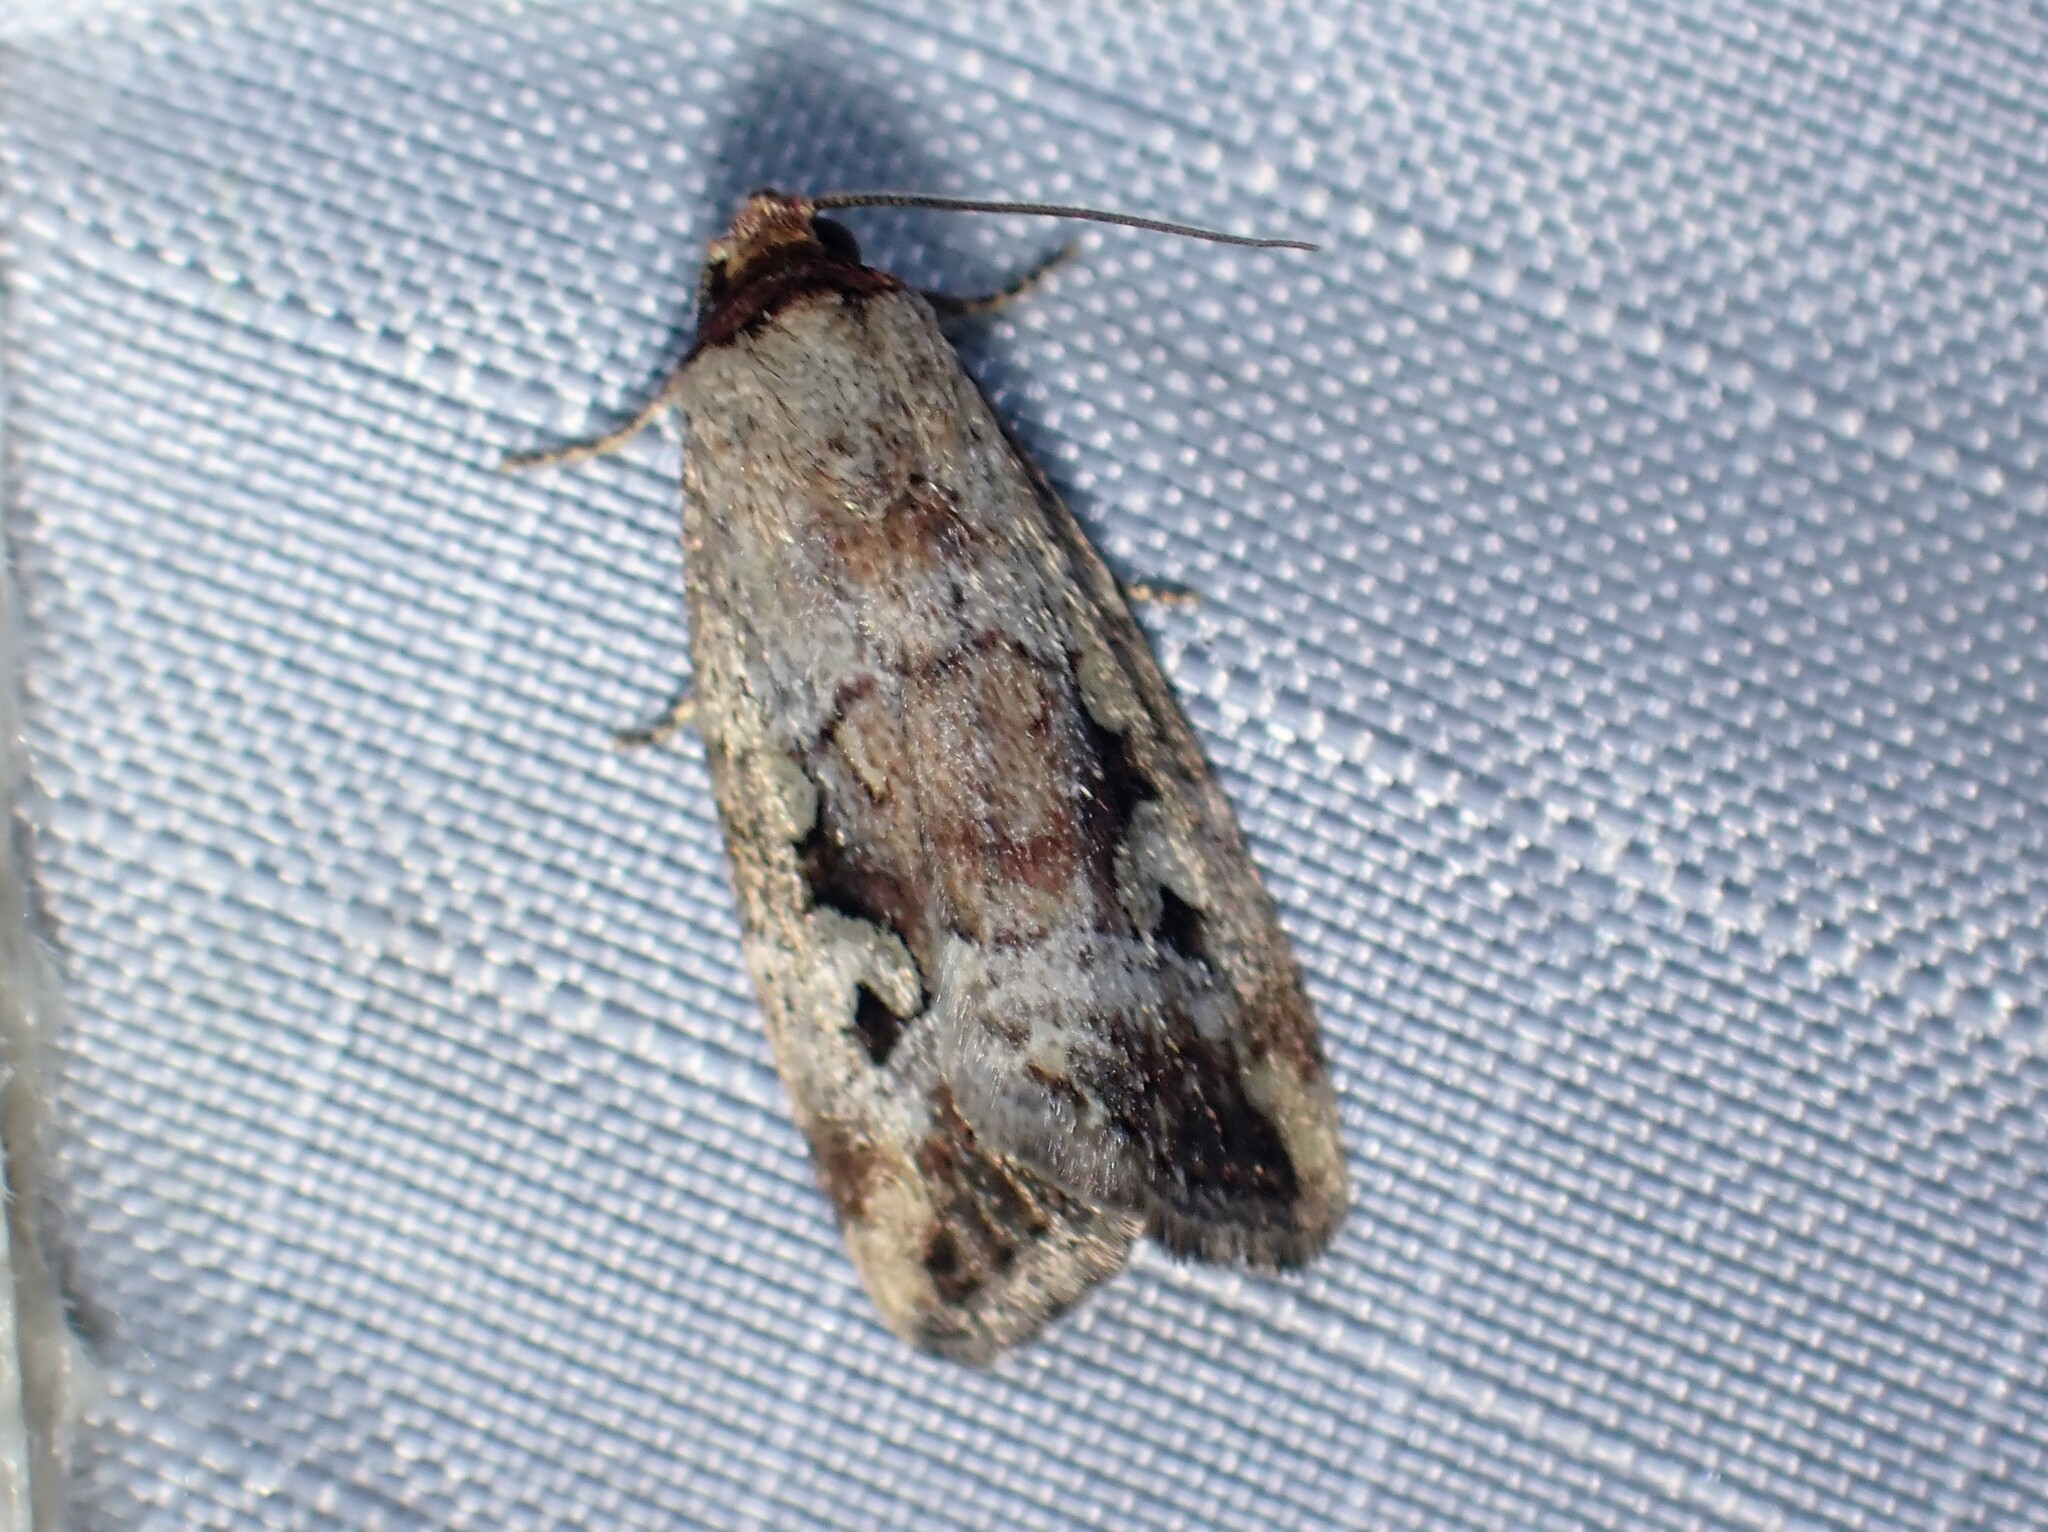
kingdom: Animalia
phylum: Arthropoda
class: Insecta
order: Lepidoptera
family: Noctuidae
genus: Elaphria
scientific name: Elaphria alapallida
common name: Pale-winged midget
